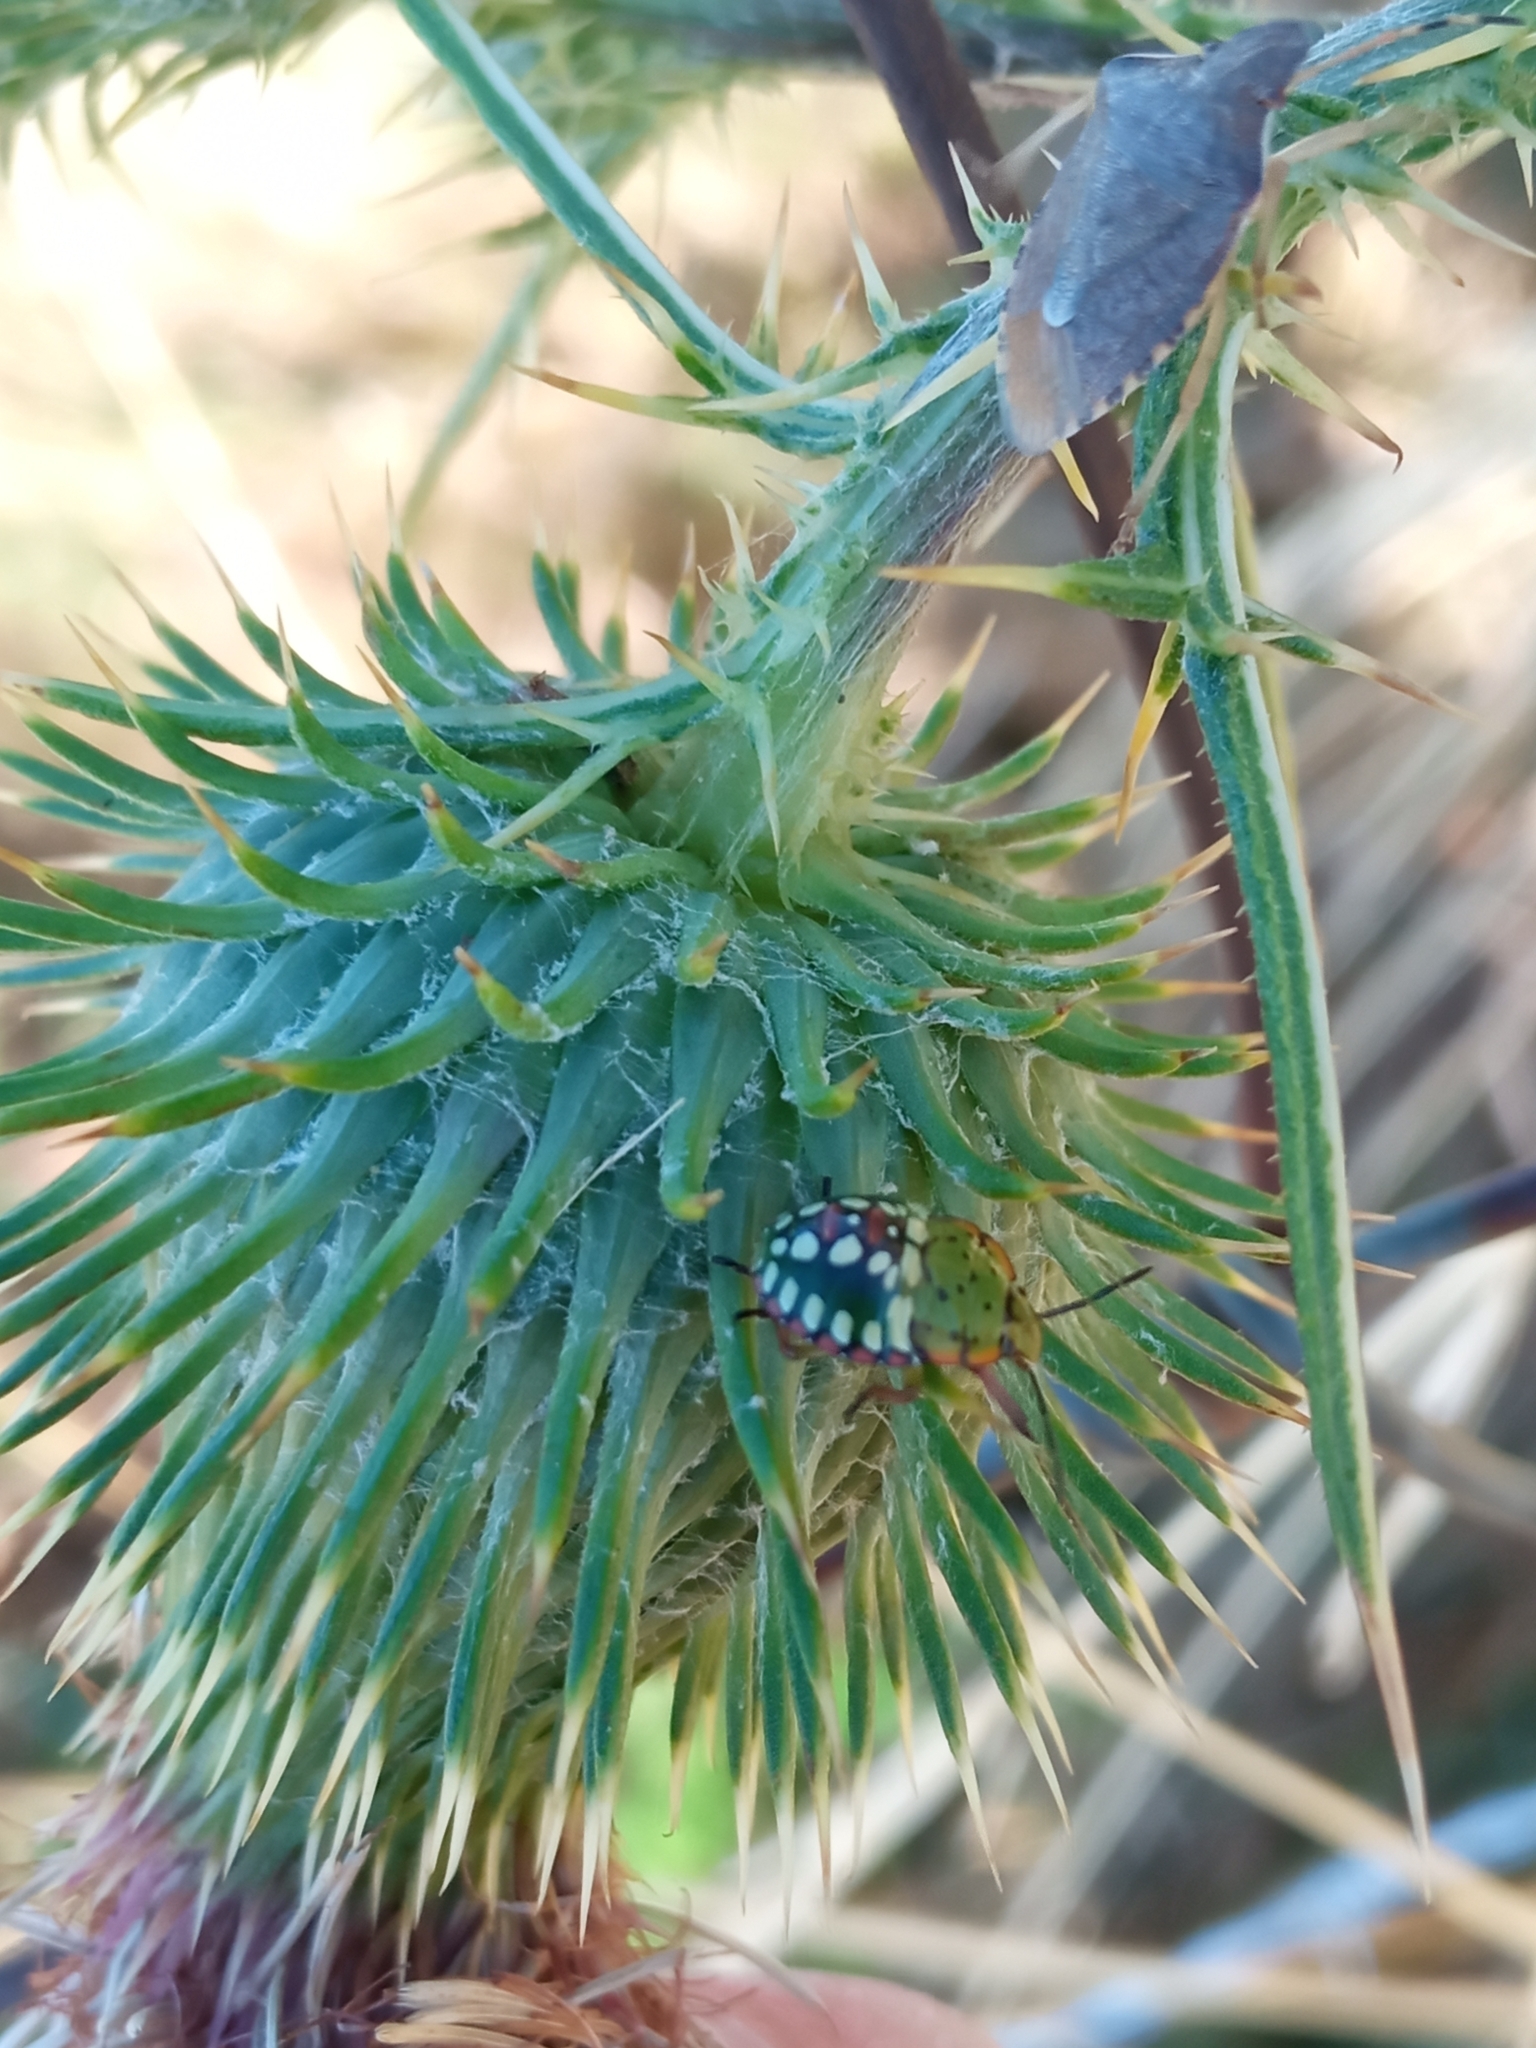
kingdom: Animalia
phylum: Arthropoda
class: Insecta
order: Hemiptera
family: Pentatomidae
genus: Nezara
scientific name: Nezara viridula
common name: Southern green stink bug
